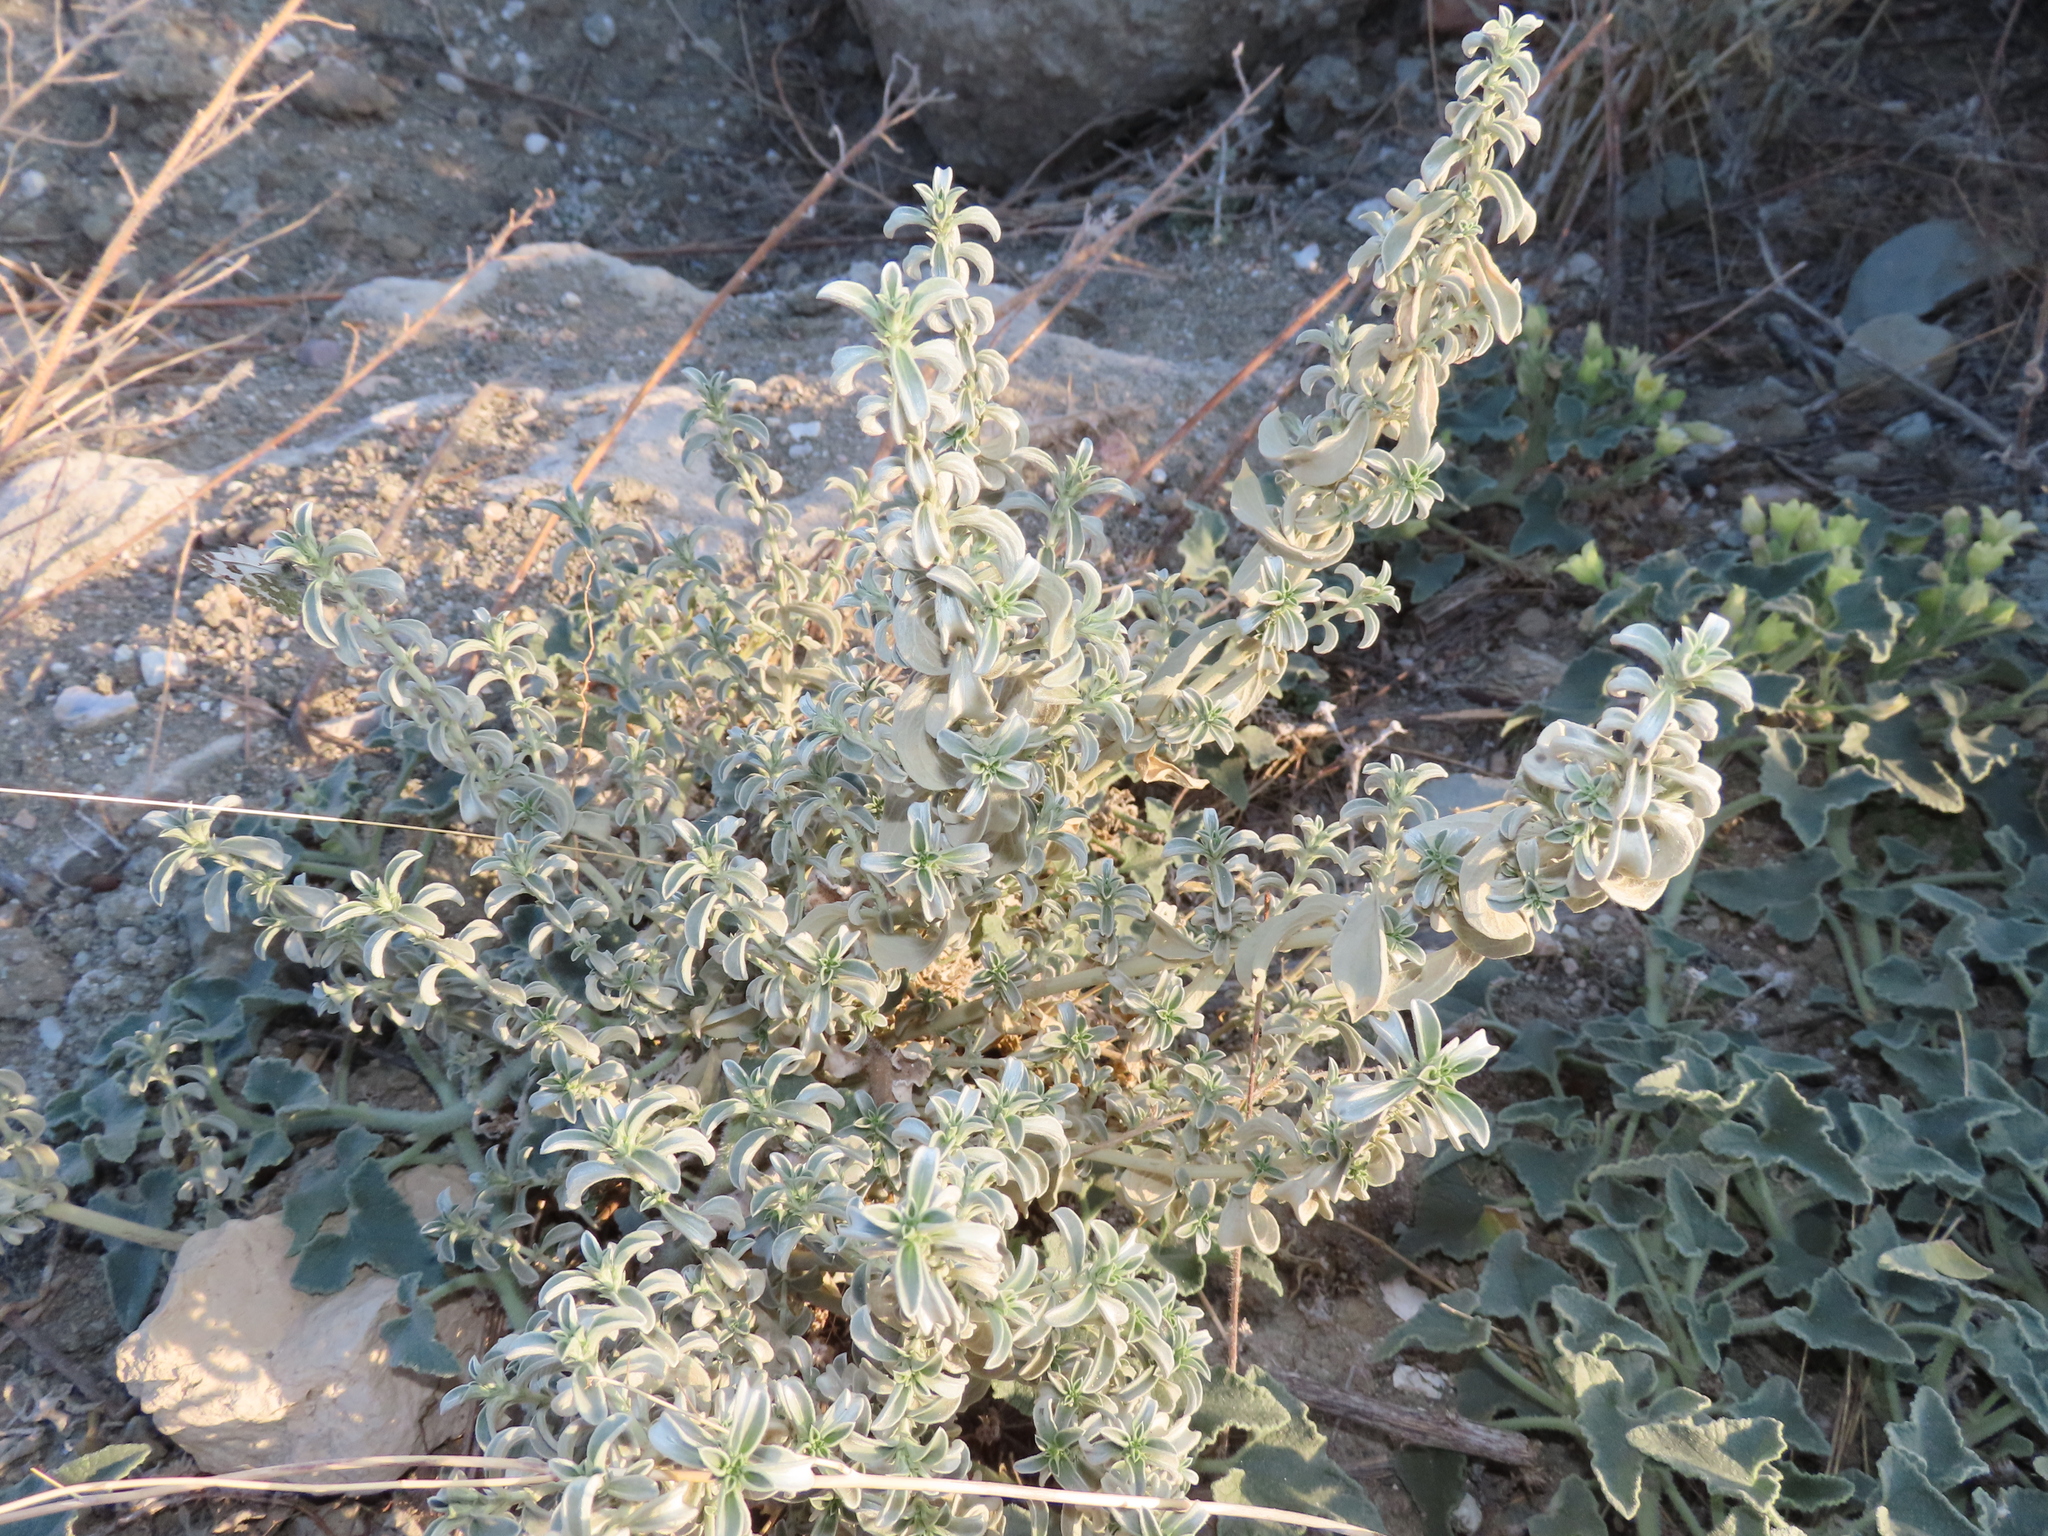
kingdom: Plantae
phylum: Tracheophyta
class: Magnoliopsida
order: Malpighiales
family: Euphorbiaceae
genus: Mercurialis
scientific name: Mercurialis tomentosa
